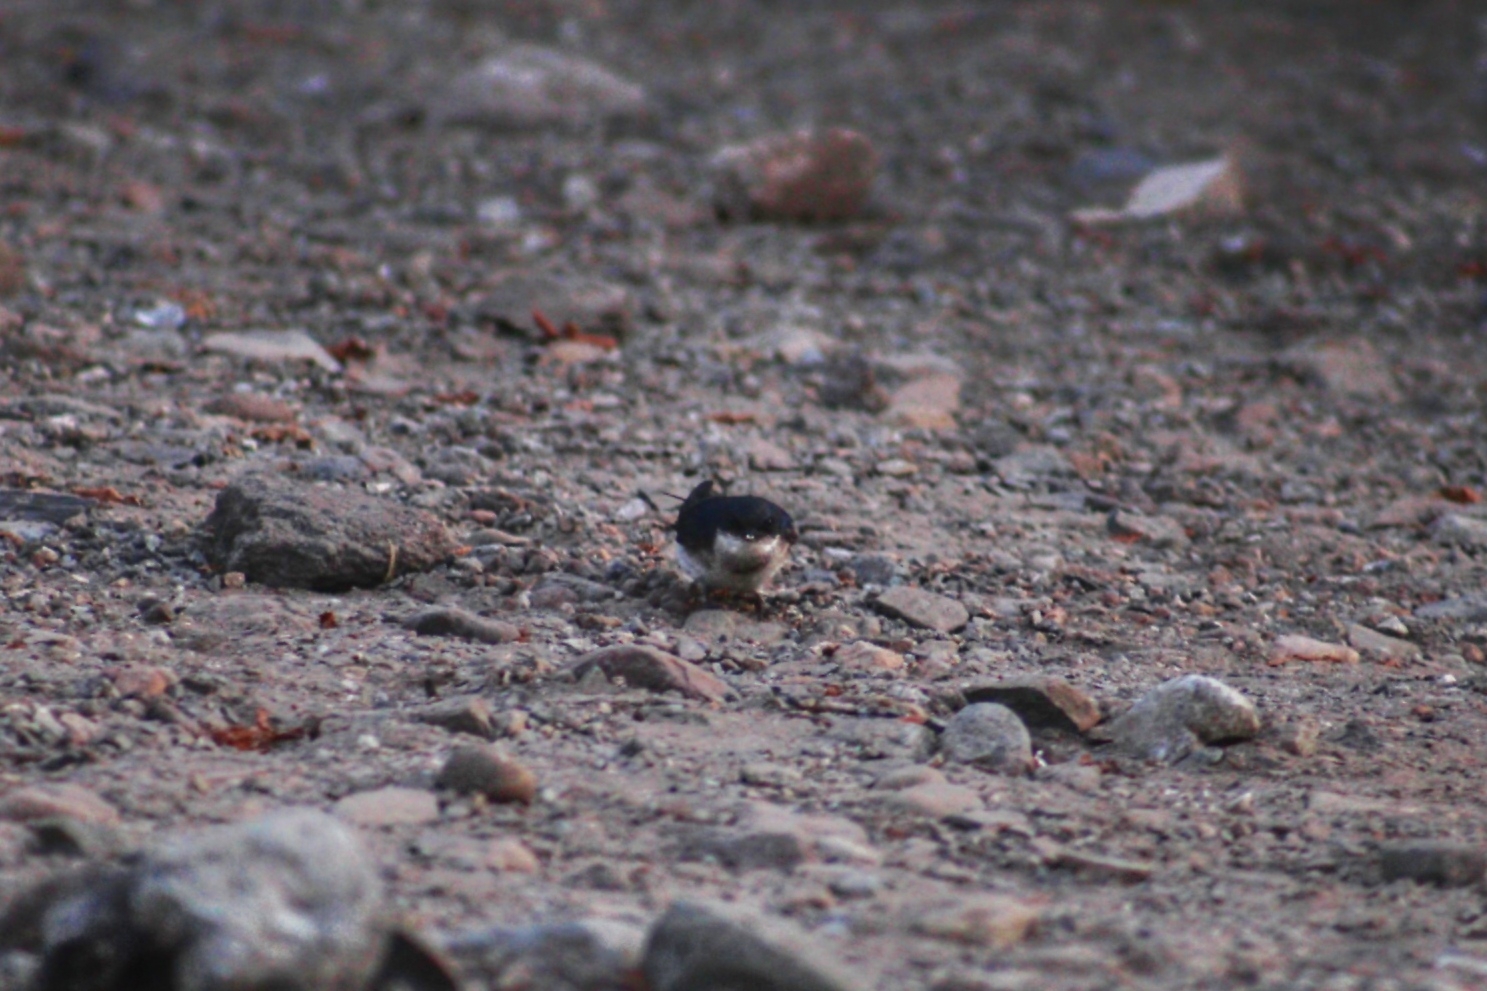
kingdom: Animalia
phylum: Chordata
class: Aves
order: Passeriformes
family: Hirundinidae
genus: Tachycineta
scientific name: Tachycineta leucopyga
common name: Chilean swallow
